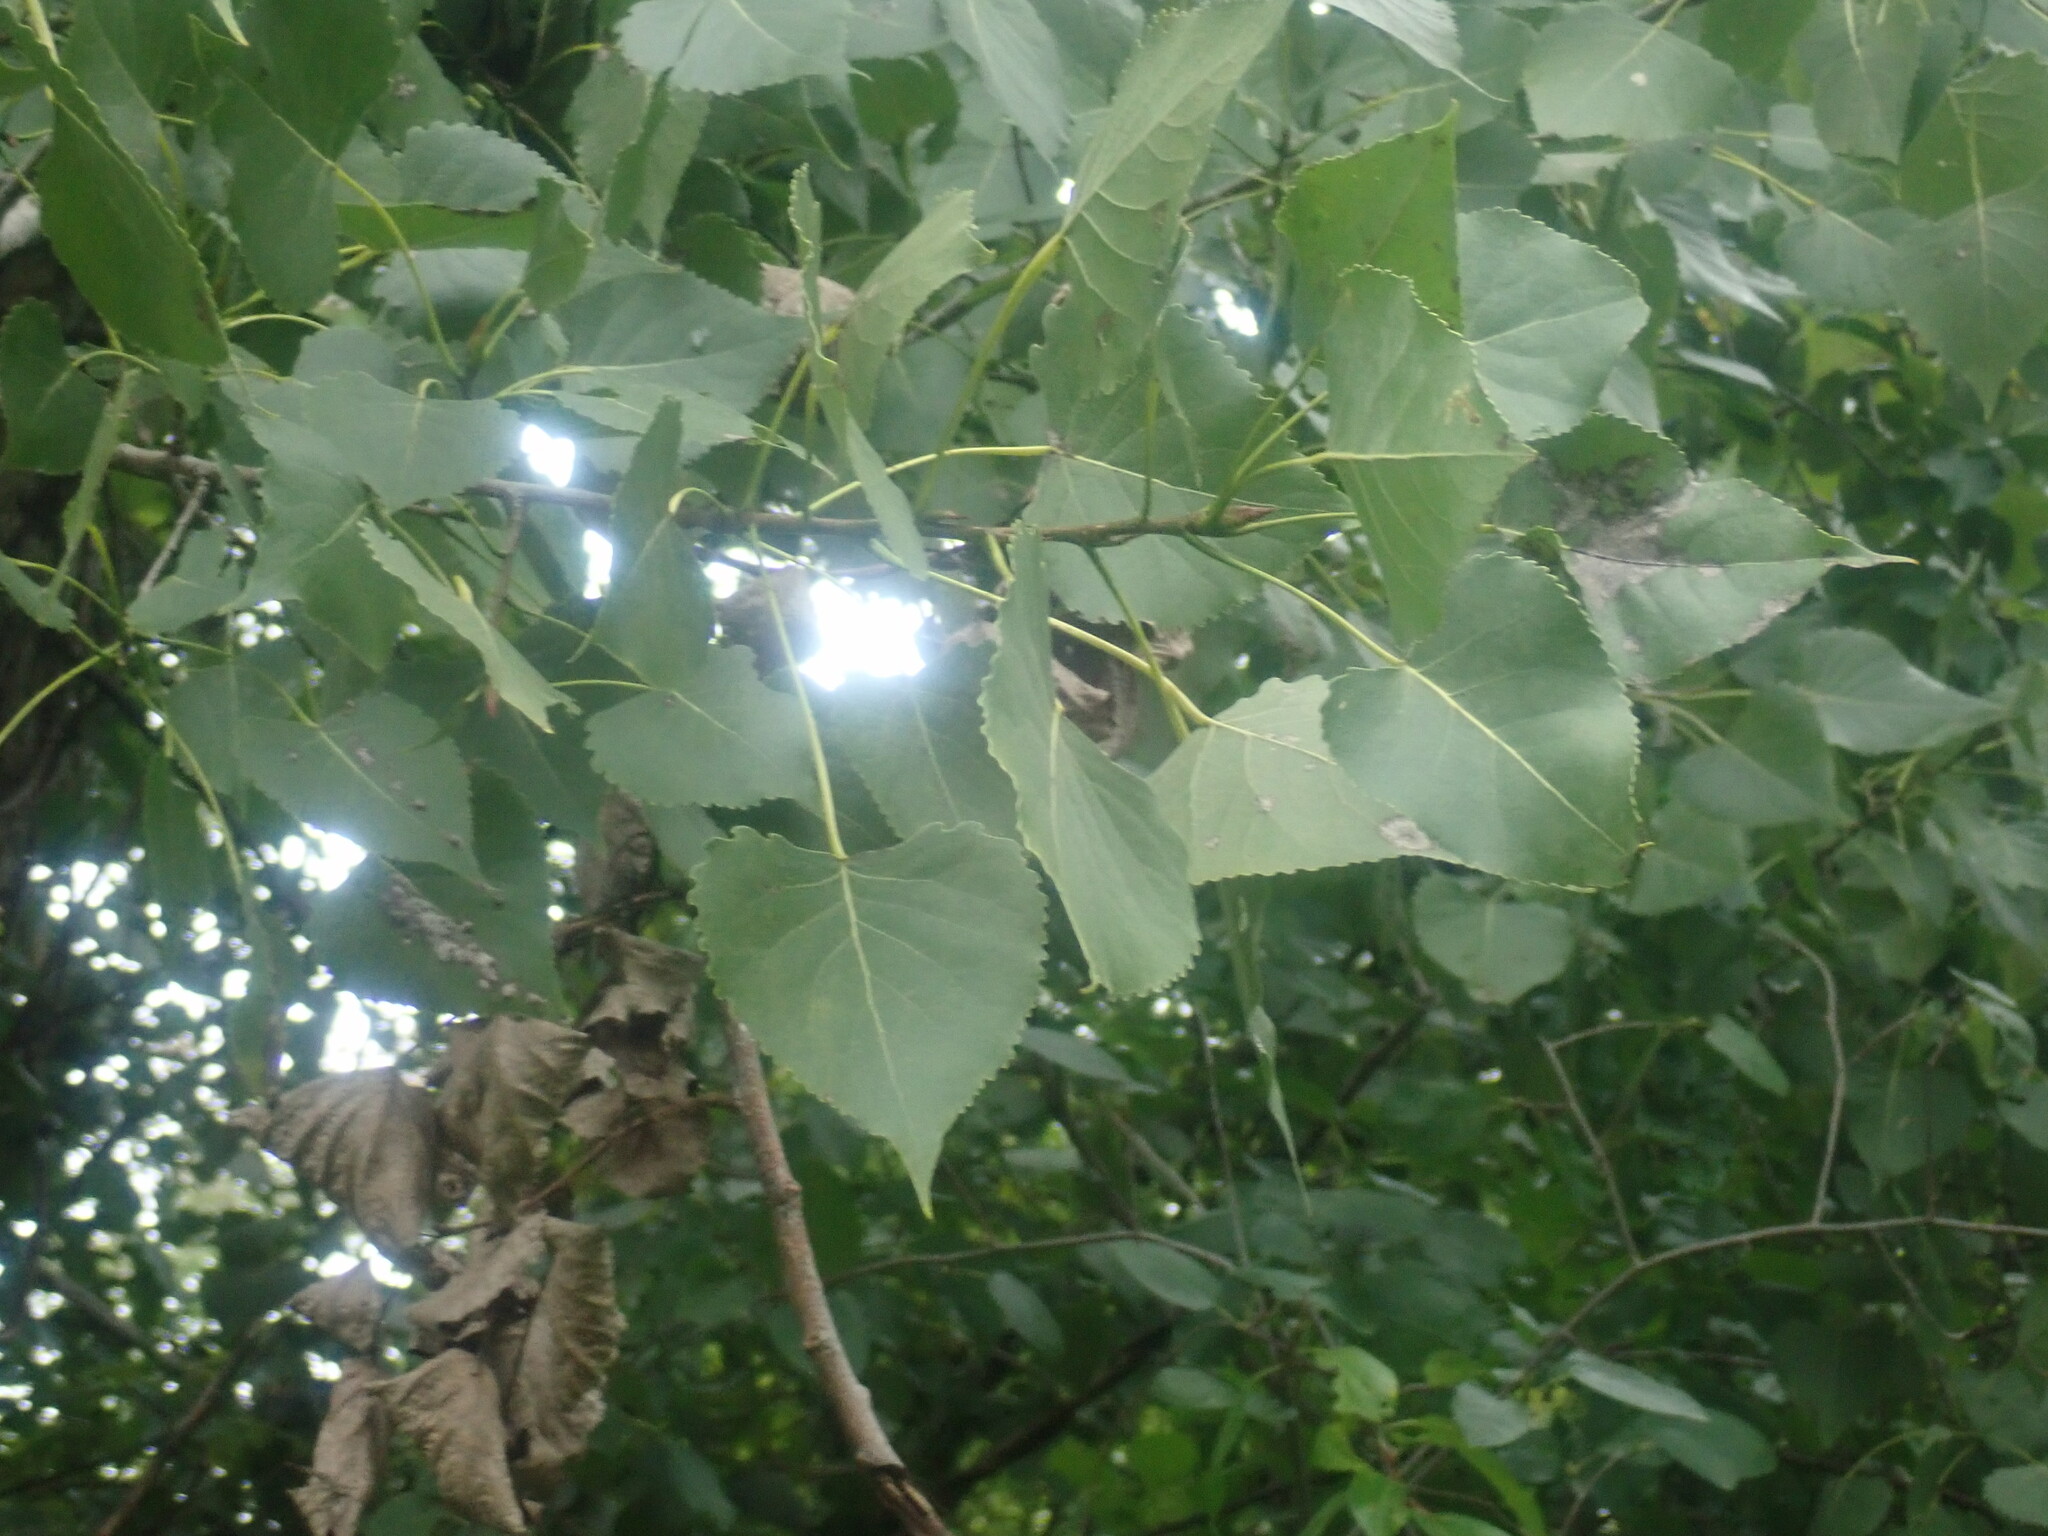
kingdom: Plantae
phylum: Tracheophyta
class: Magnoliopsida
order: Malpighiales
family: Salicaceae
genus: Populus
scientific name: Populus deltoides
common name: Eastern cottonwood
